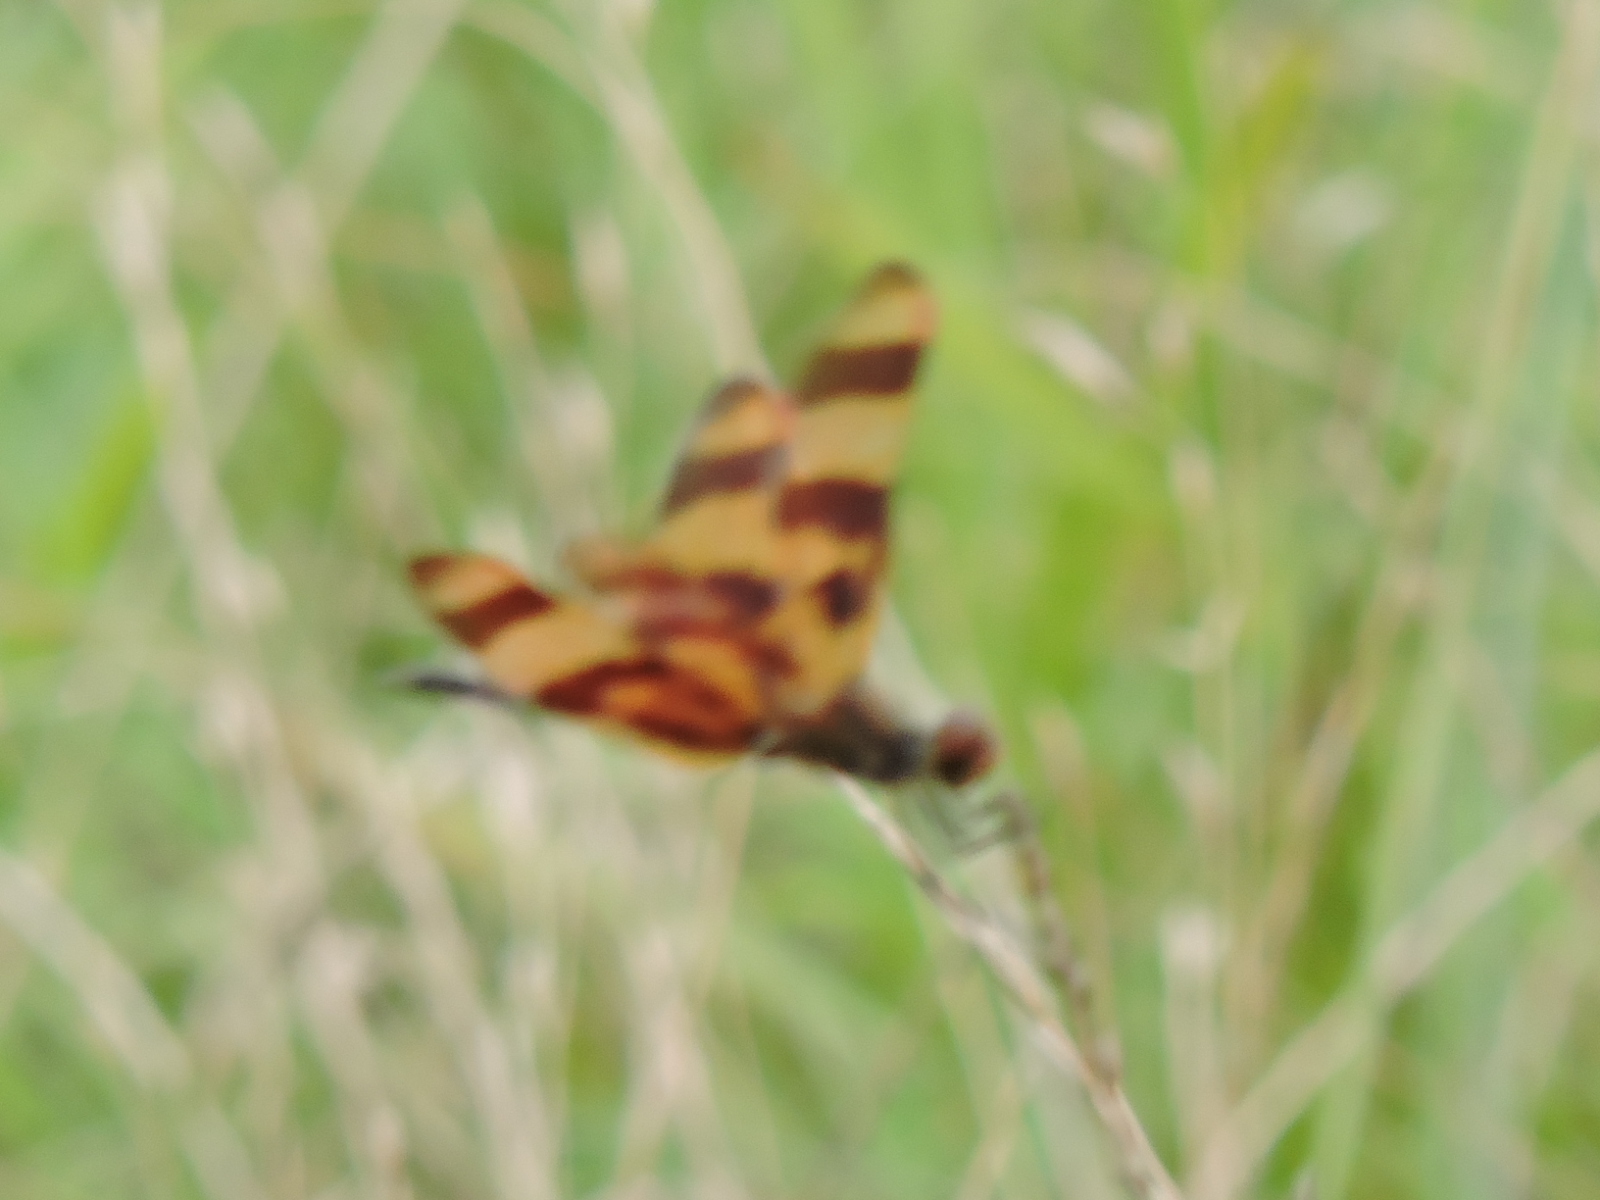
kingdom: Animalia
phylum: Arthropoda
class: Insecta
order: Odonata
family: Libellulidae
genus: Celithemis
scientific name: Celithemis eponina
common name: Halloween pennant
